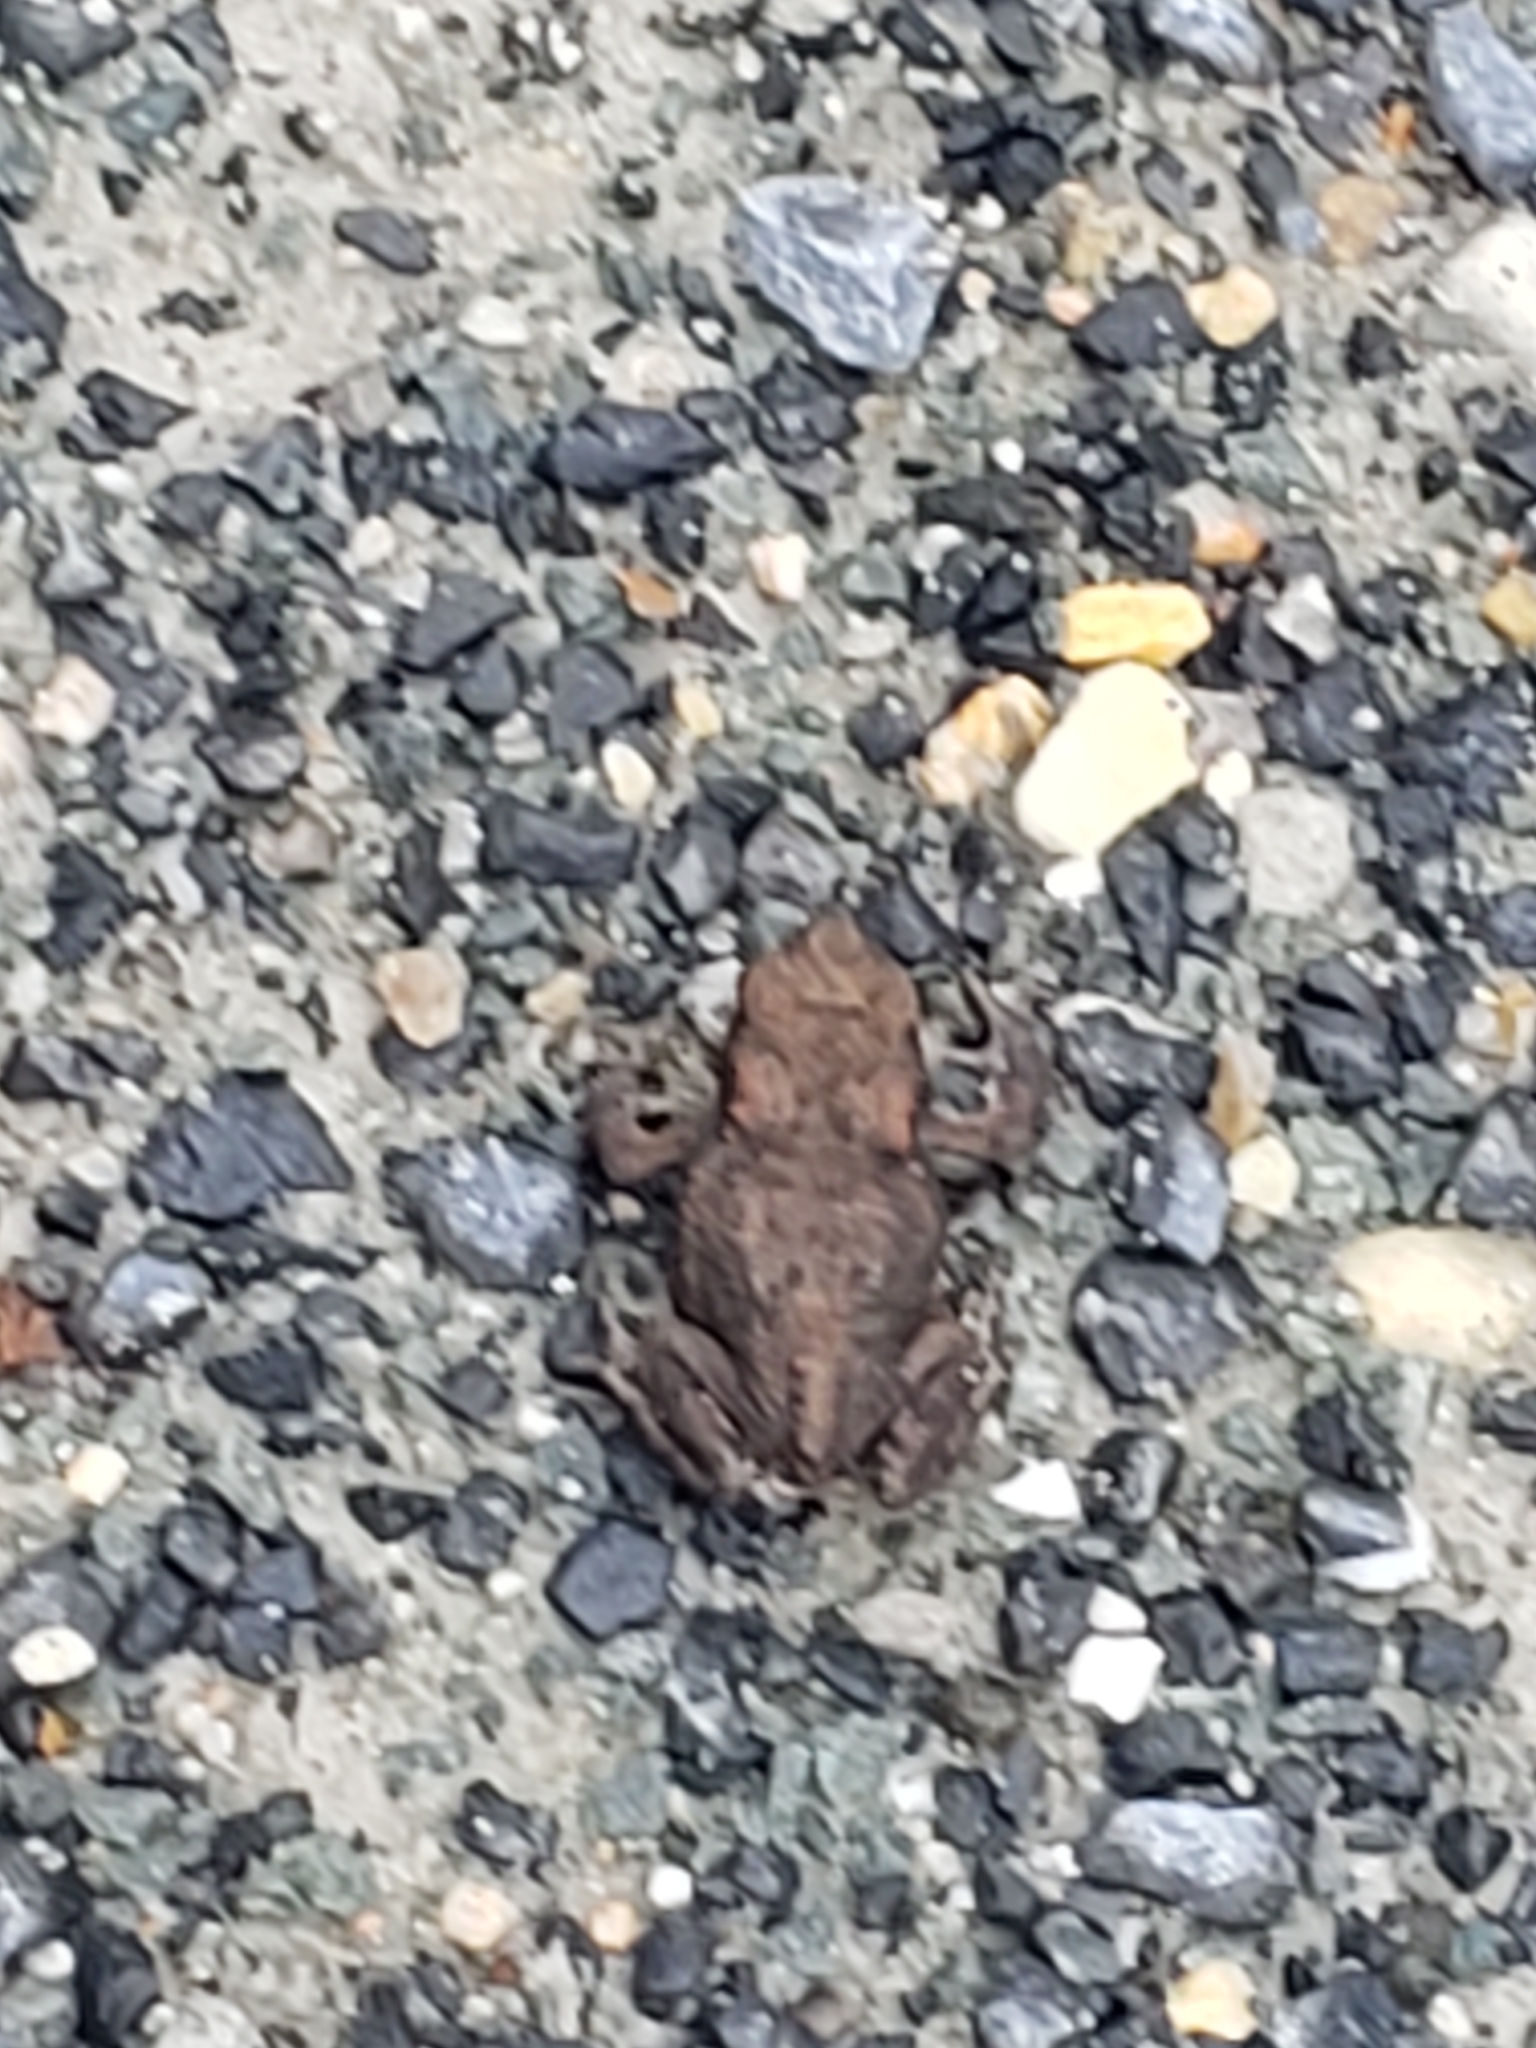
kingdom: Animalia
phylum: Chordata
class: Amphibia
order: Anura
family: Bufonidae
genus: Bufo
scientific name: Bufo bufo
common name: Common toad
